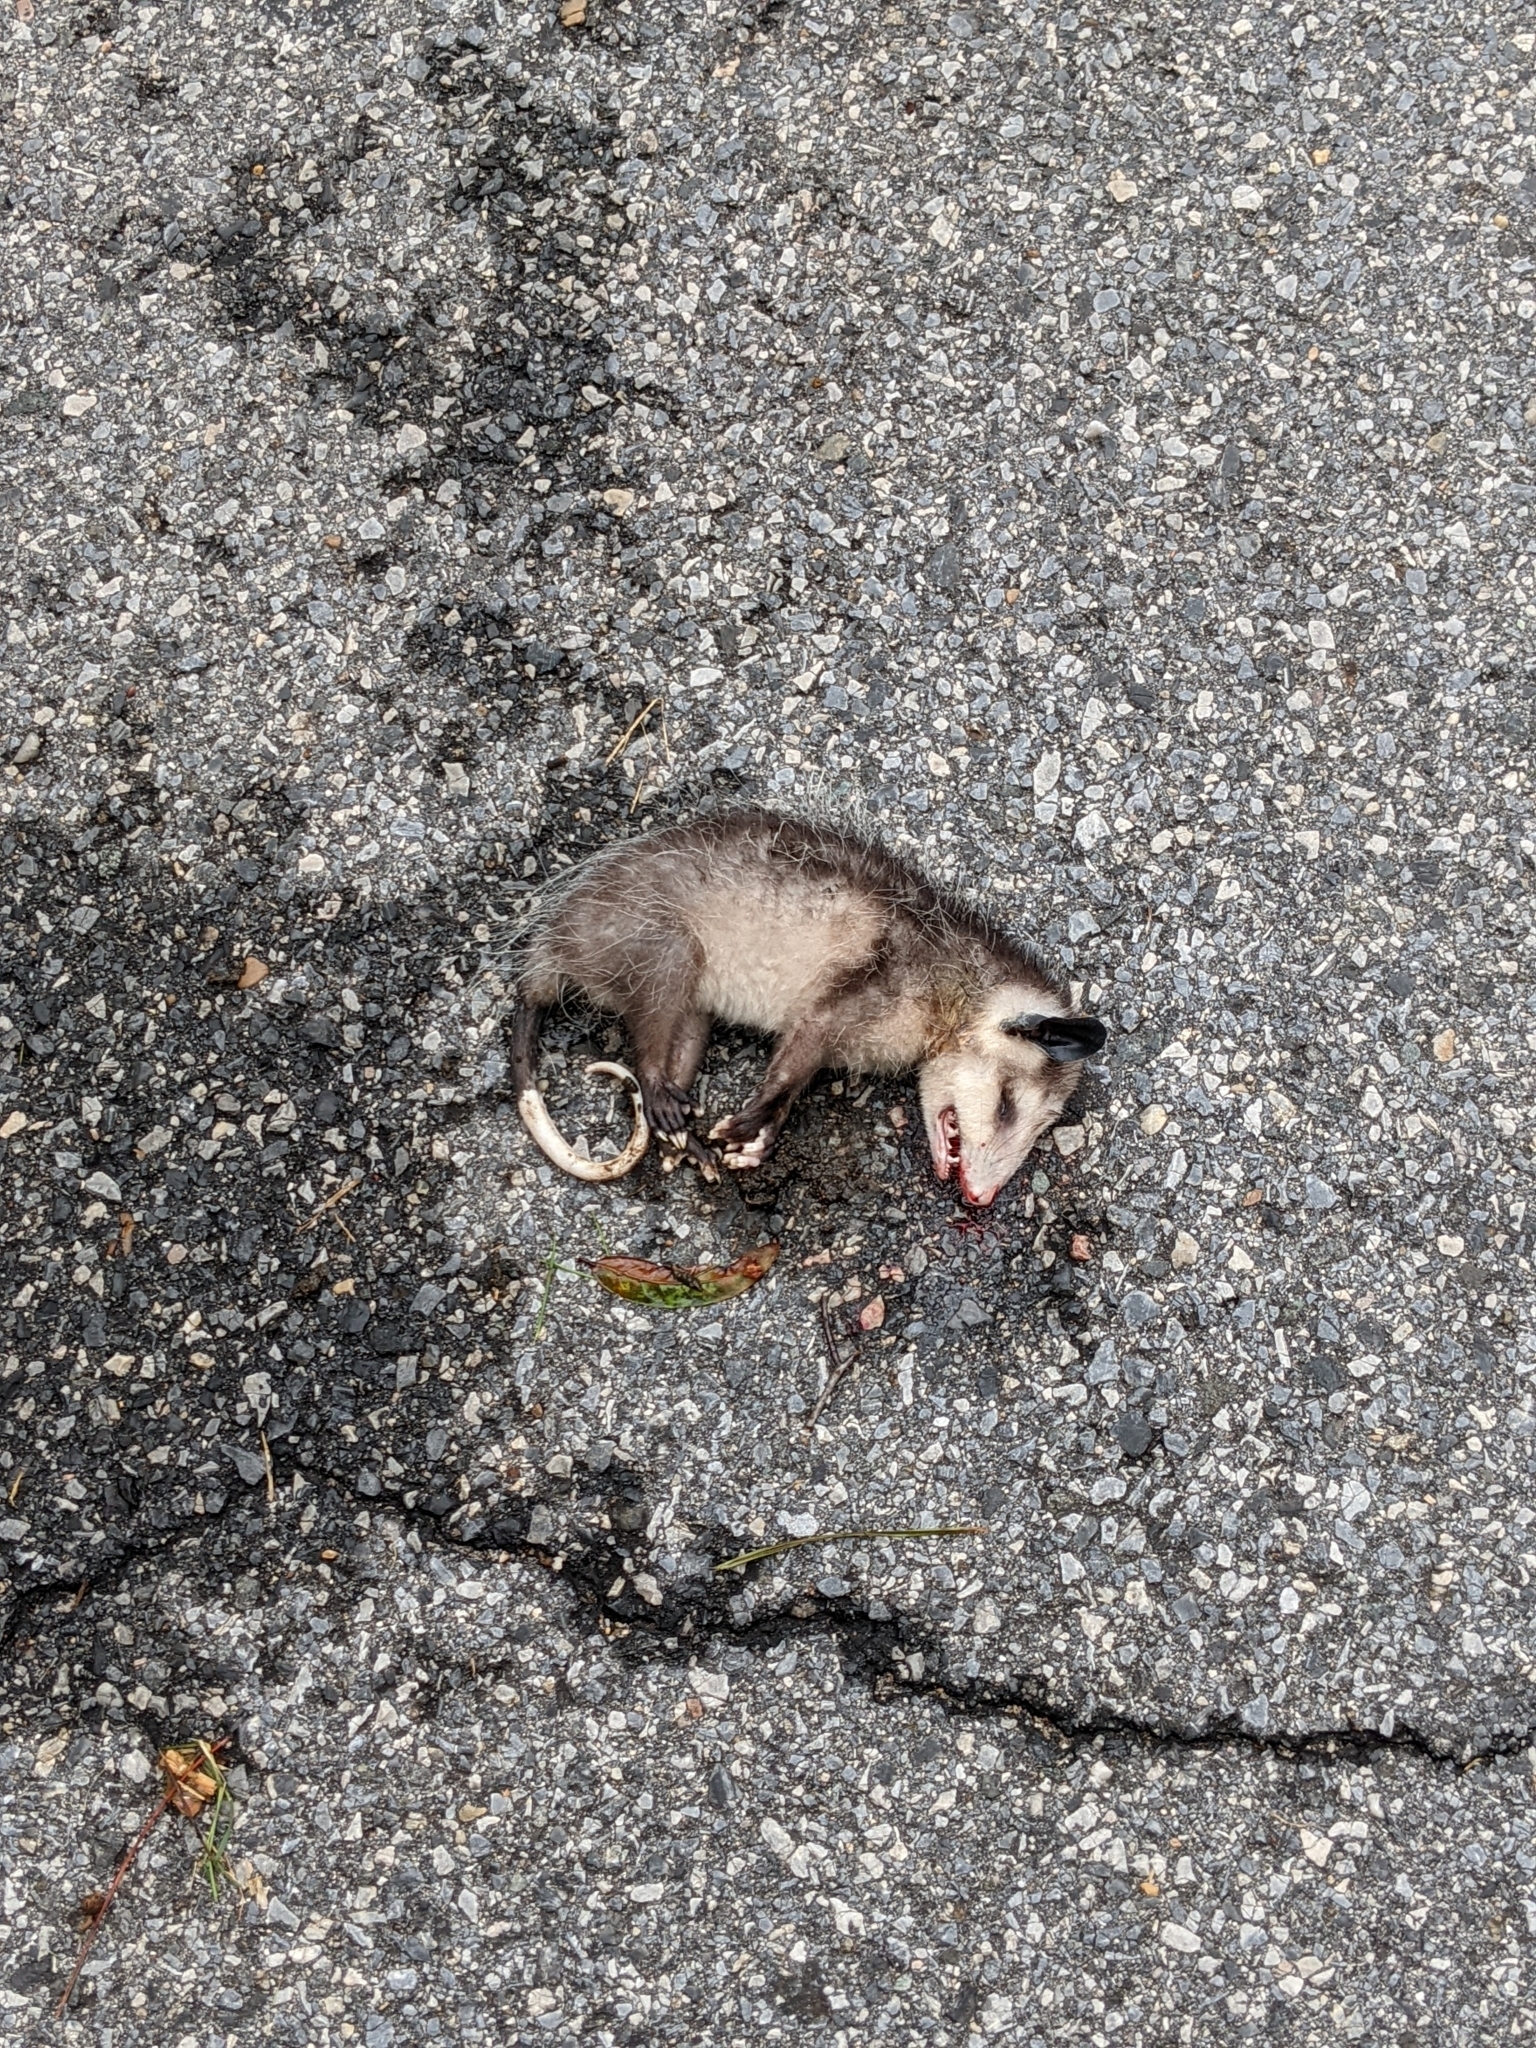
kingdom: Animalia
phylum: Chordata
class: Mammalia
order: Didelphimorphia
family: Didelphidae
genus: Didelphis
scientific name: Didelphis virginiana
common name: Virginia opossum
